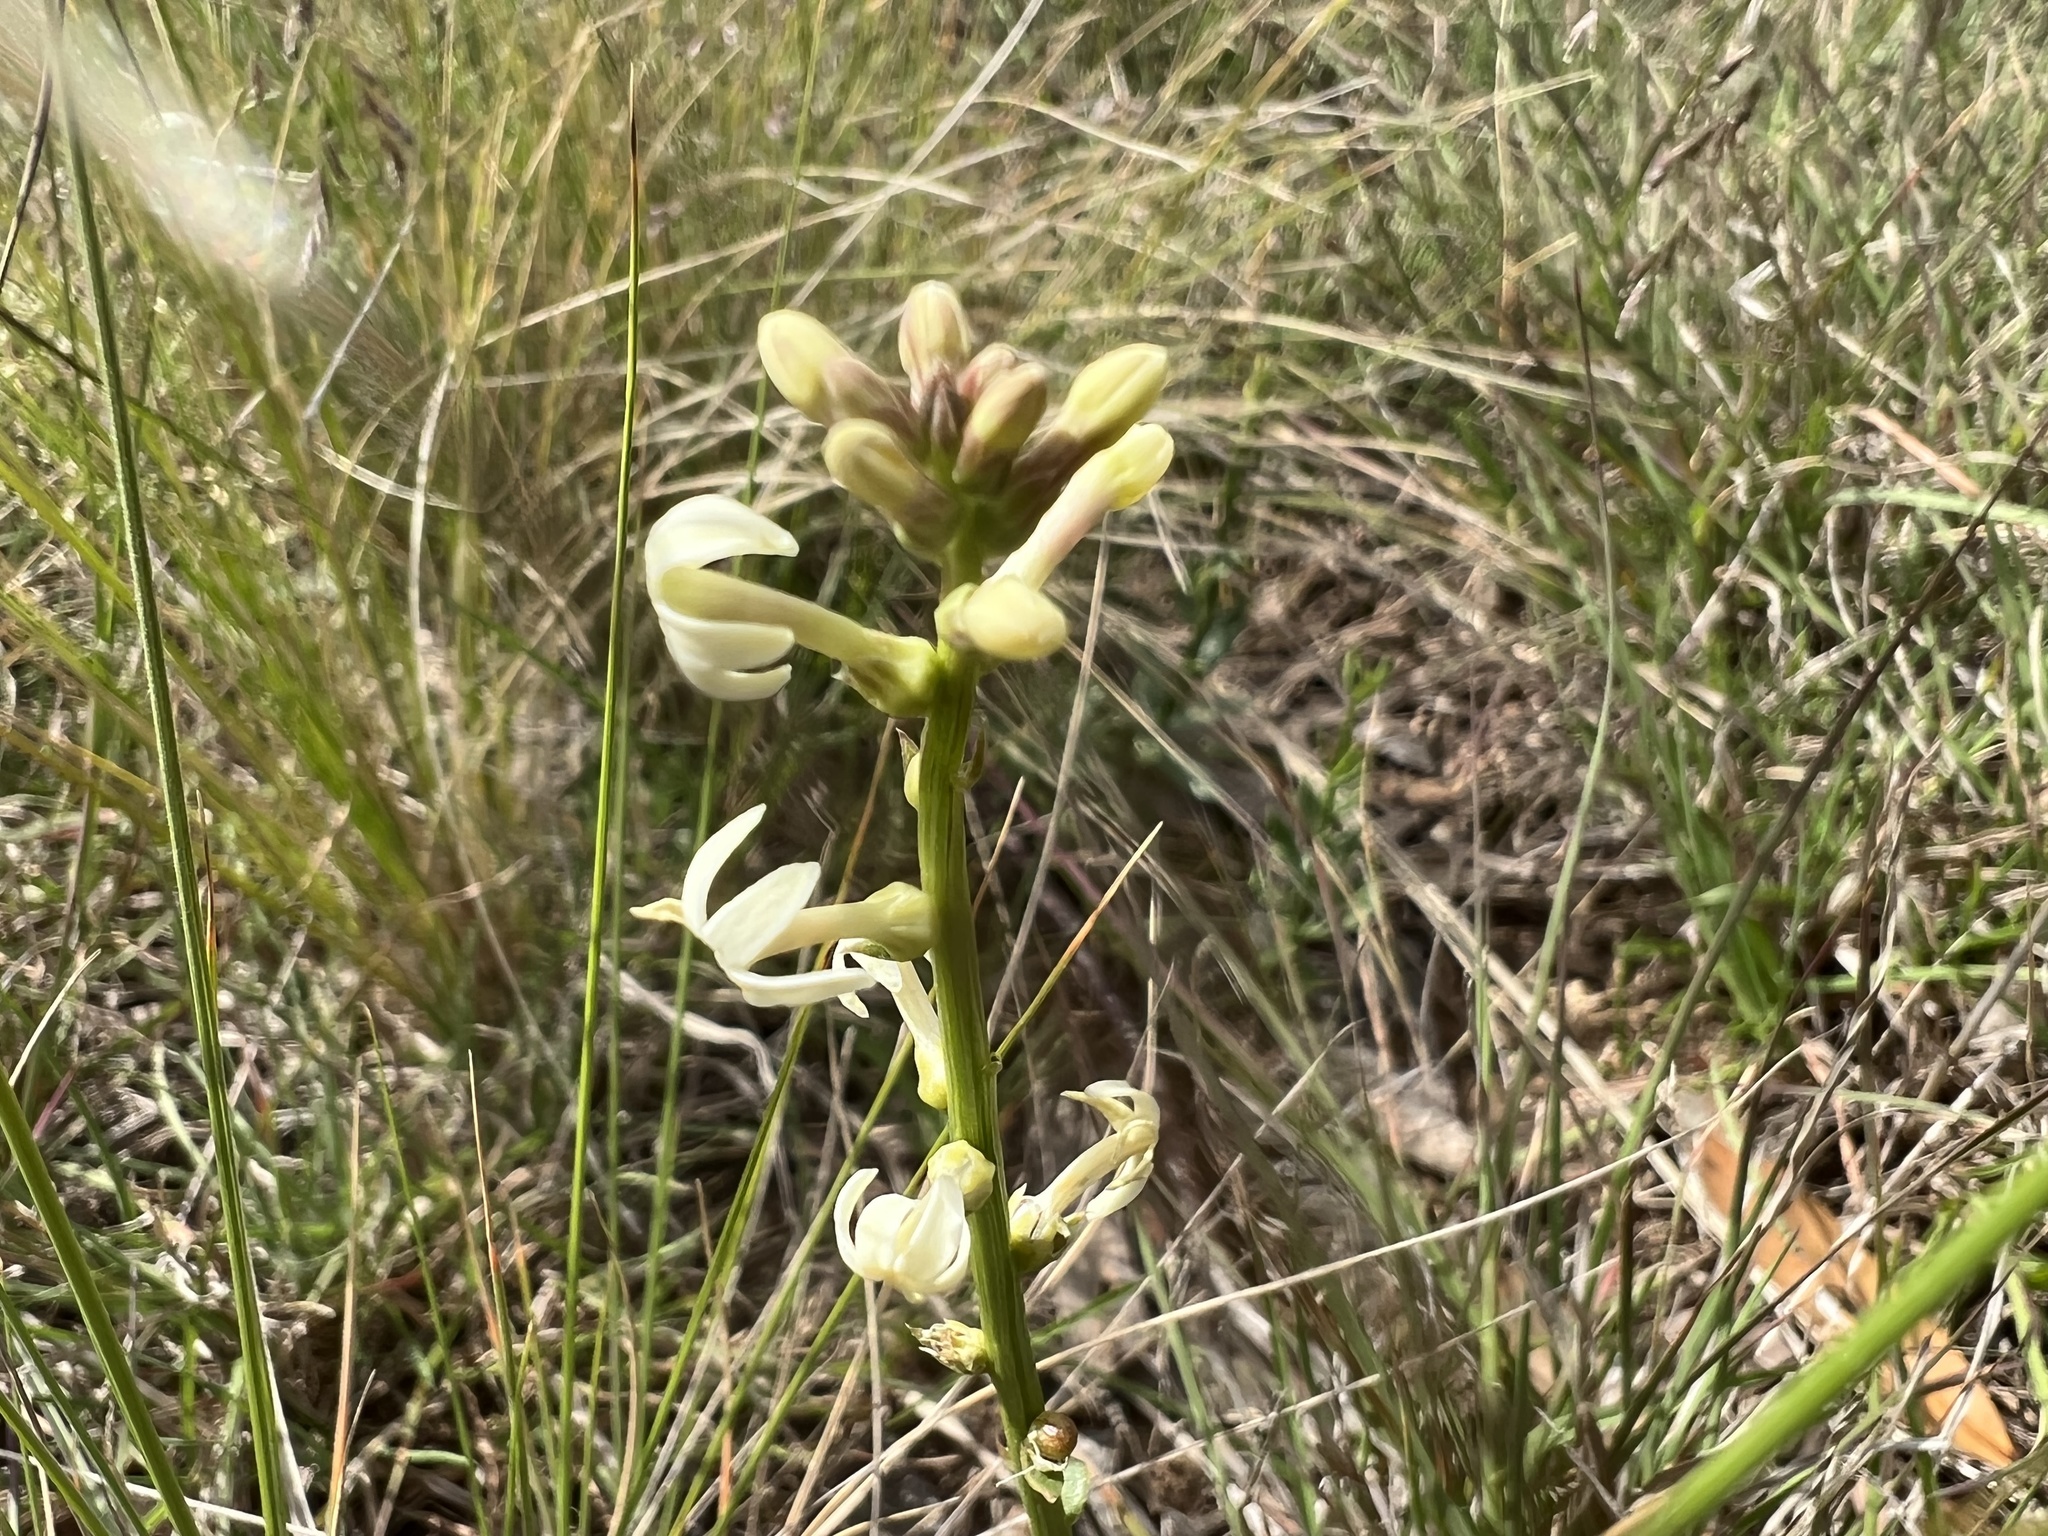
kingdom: Plantae
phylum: Tracheophyta
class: Magnoliopsida
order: Celastrales
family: Celastraceae
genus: Stackhousia
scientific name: Stackhousia subterranea
